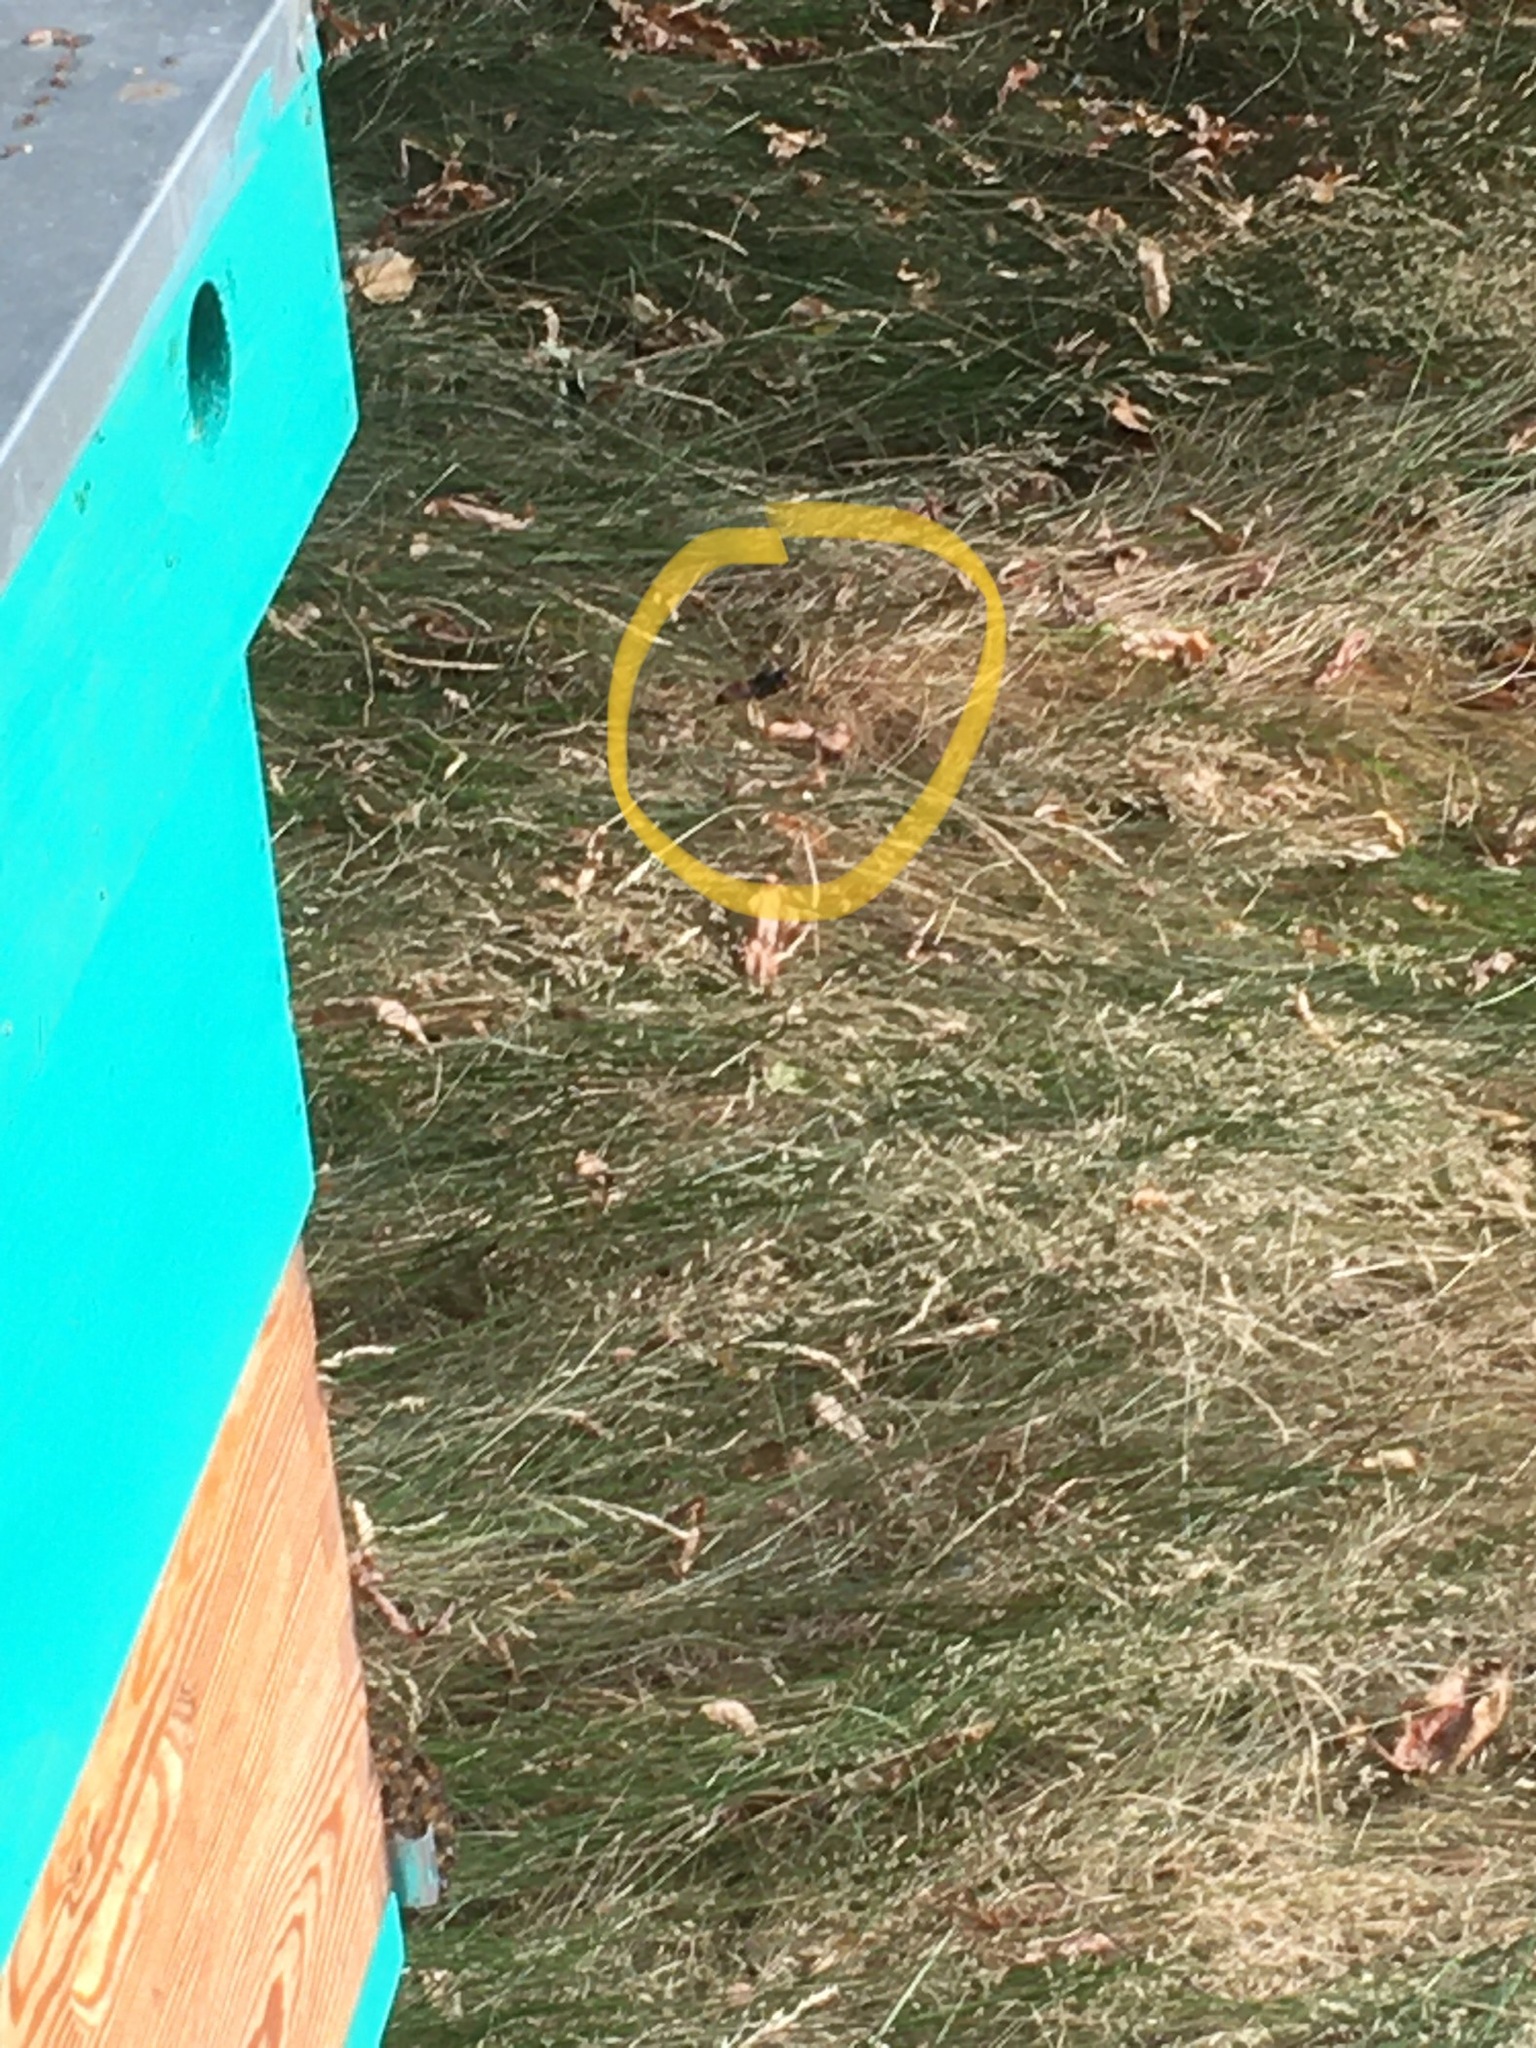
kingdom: Animalia
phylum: Arthropoda
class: Insecta
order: Hymenoptera
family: Vespidae
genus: Vespa
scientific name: Vespa velutina
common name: Asian hornet
